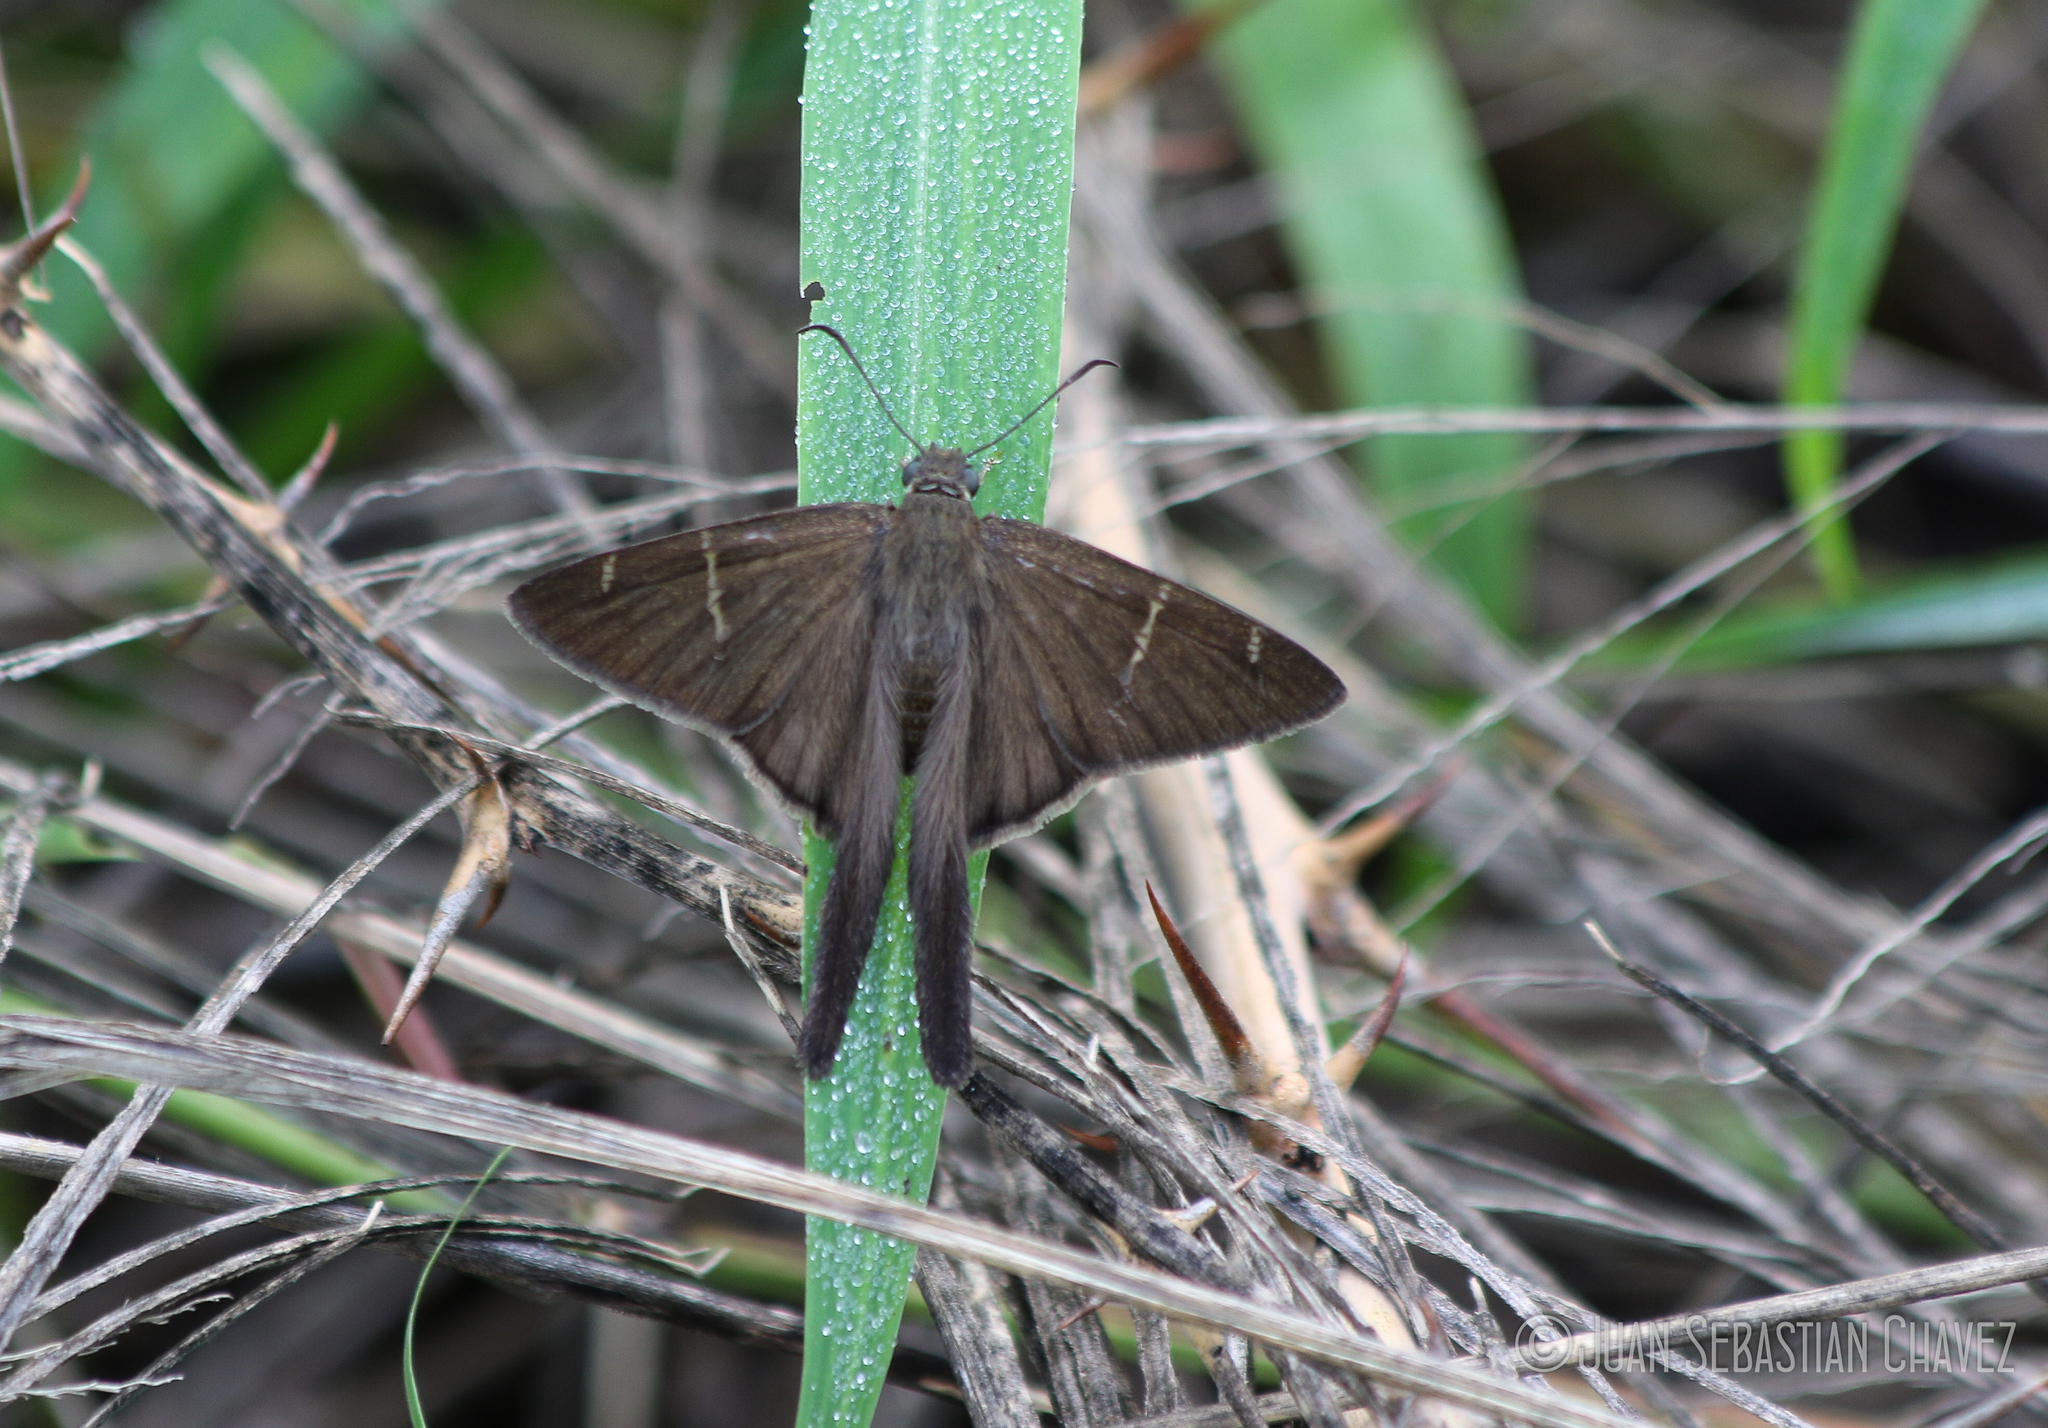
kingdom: Animalia
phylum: Arthropoda
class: Insecta
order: Lepidoptera
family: Hesperiidae
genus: Urbanus
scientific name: Urbanus procne
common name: Brown longtail
